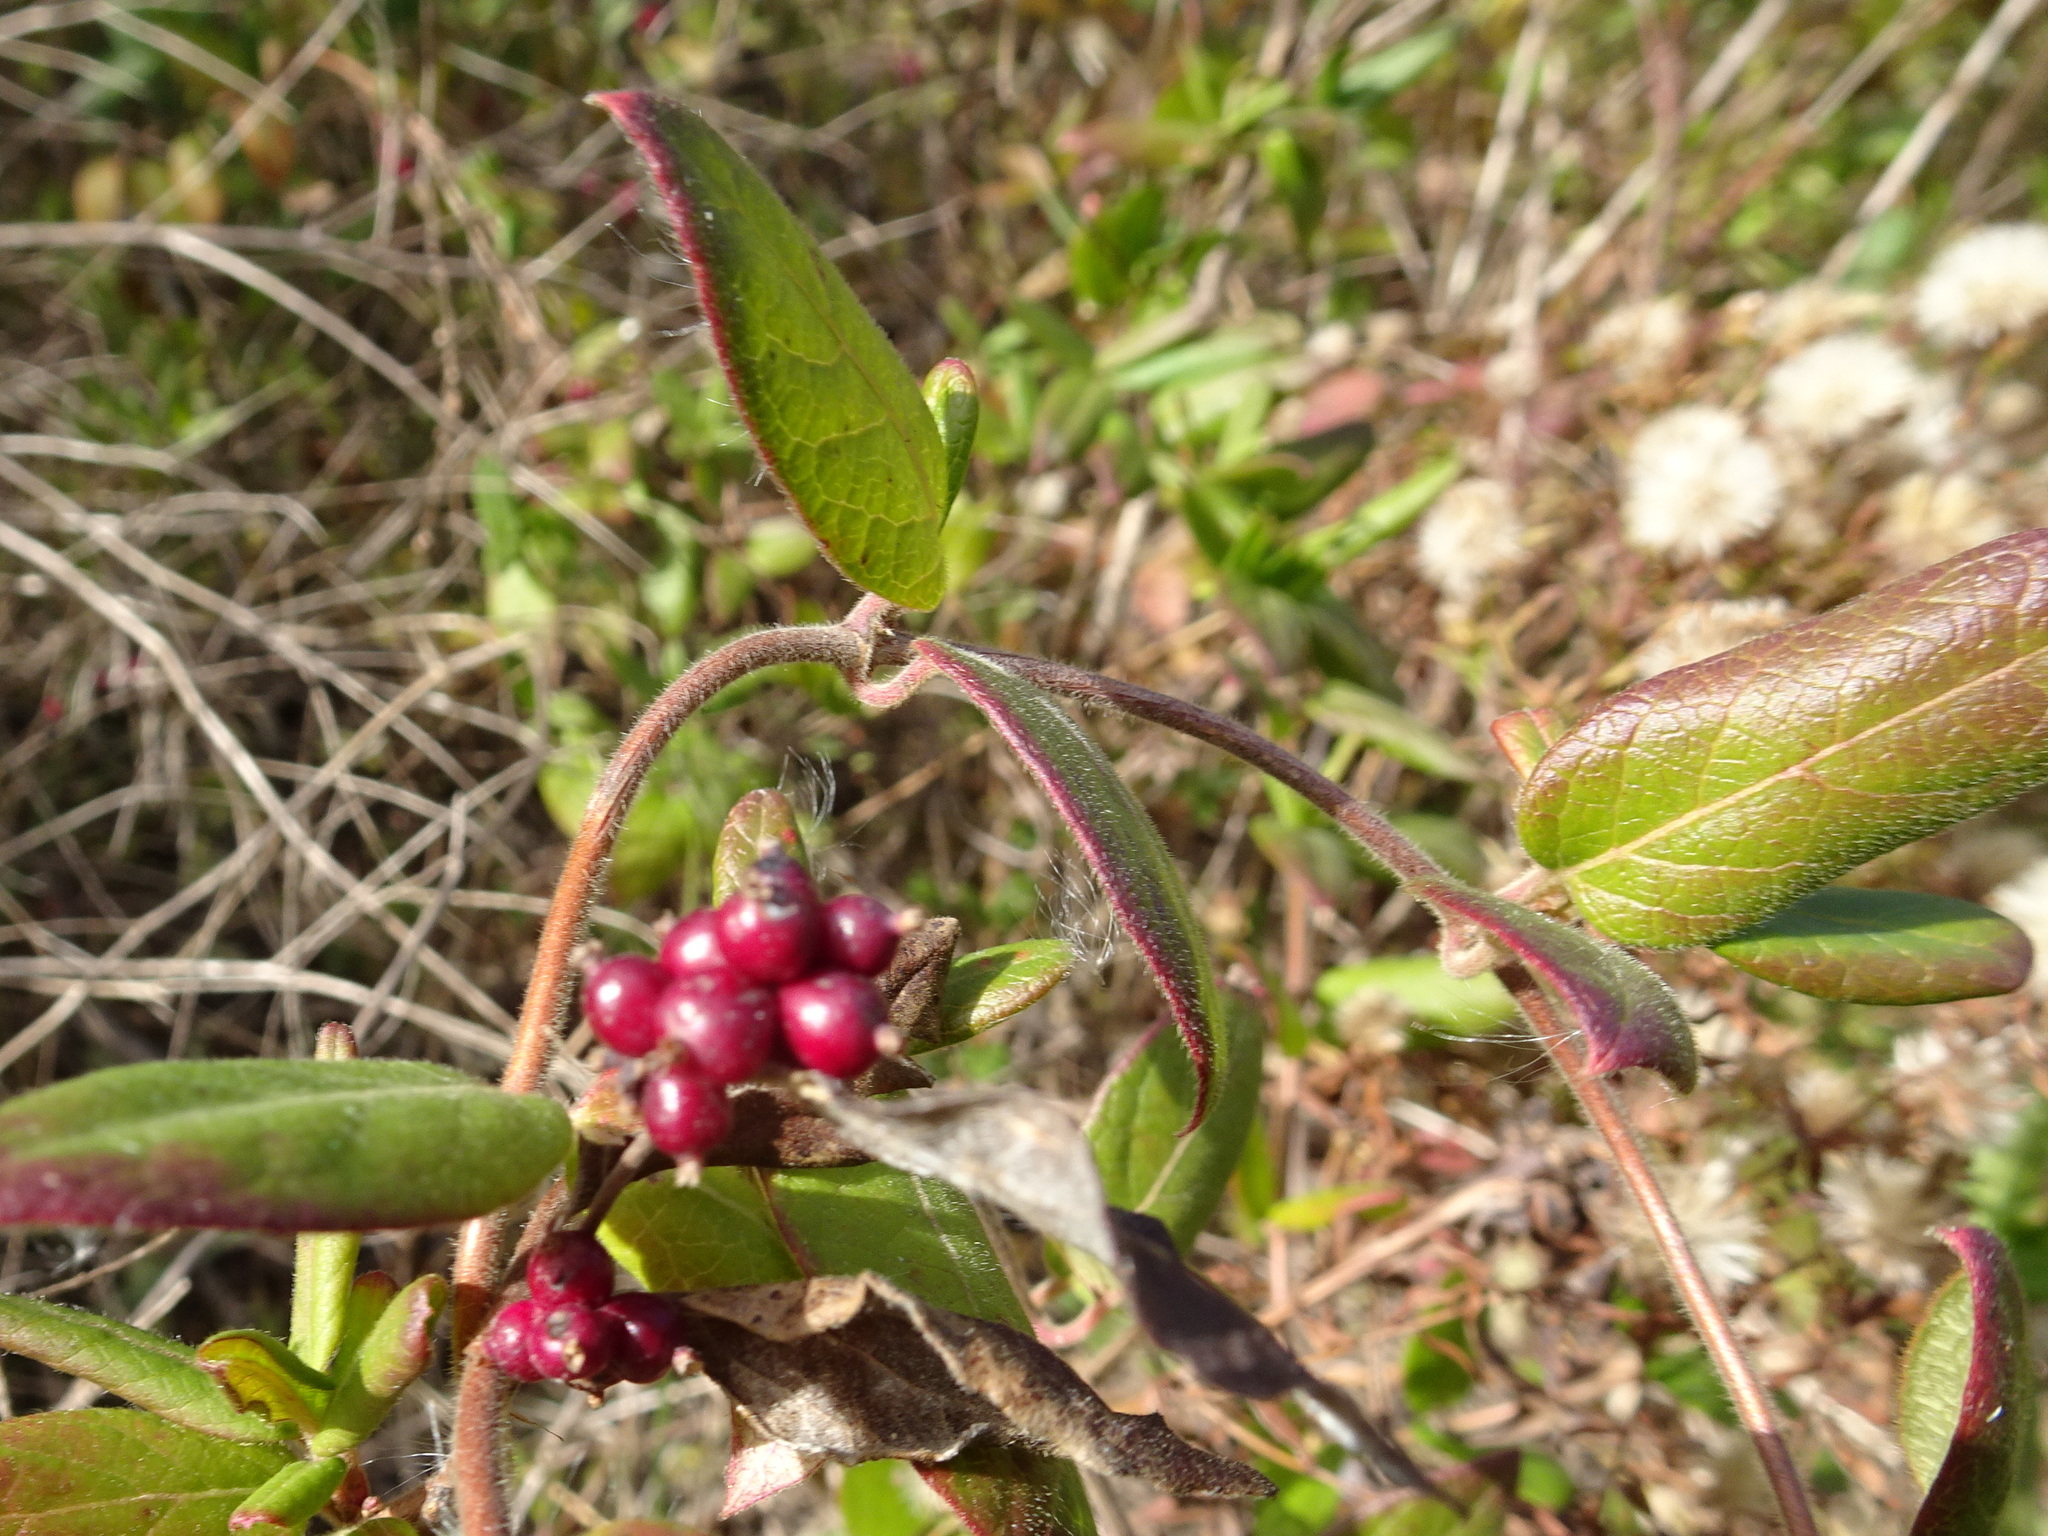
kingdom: Plantae
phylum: Tracheophyta
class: Magnoliopsida
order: Dipsacales
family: Caprifoliaceae
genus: Lonicera
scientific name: Lonicera japonica
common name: Japanese honeysuckle
